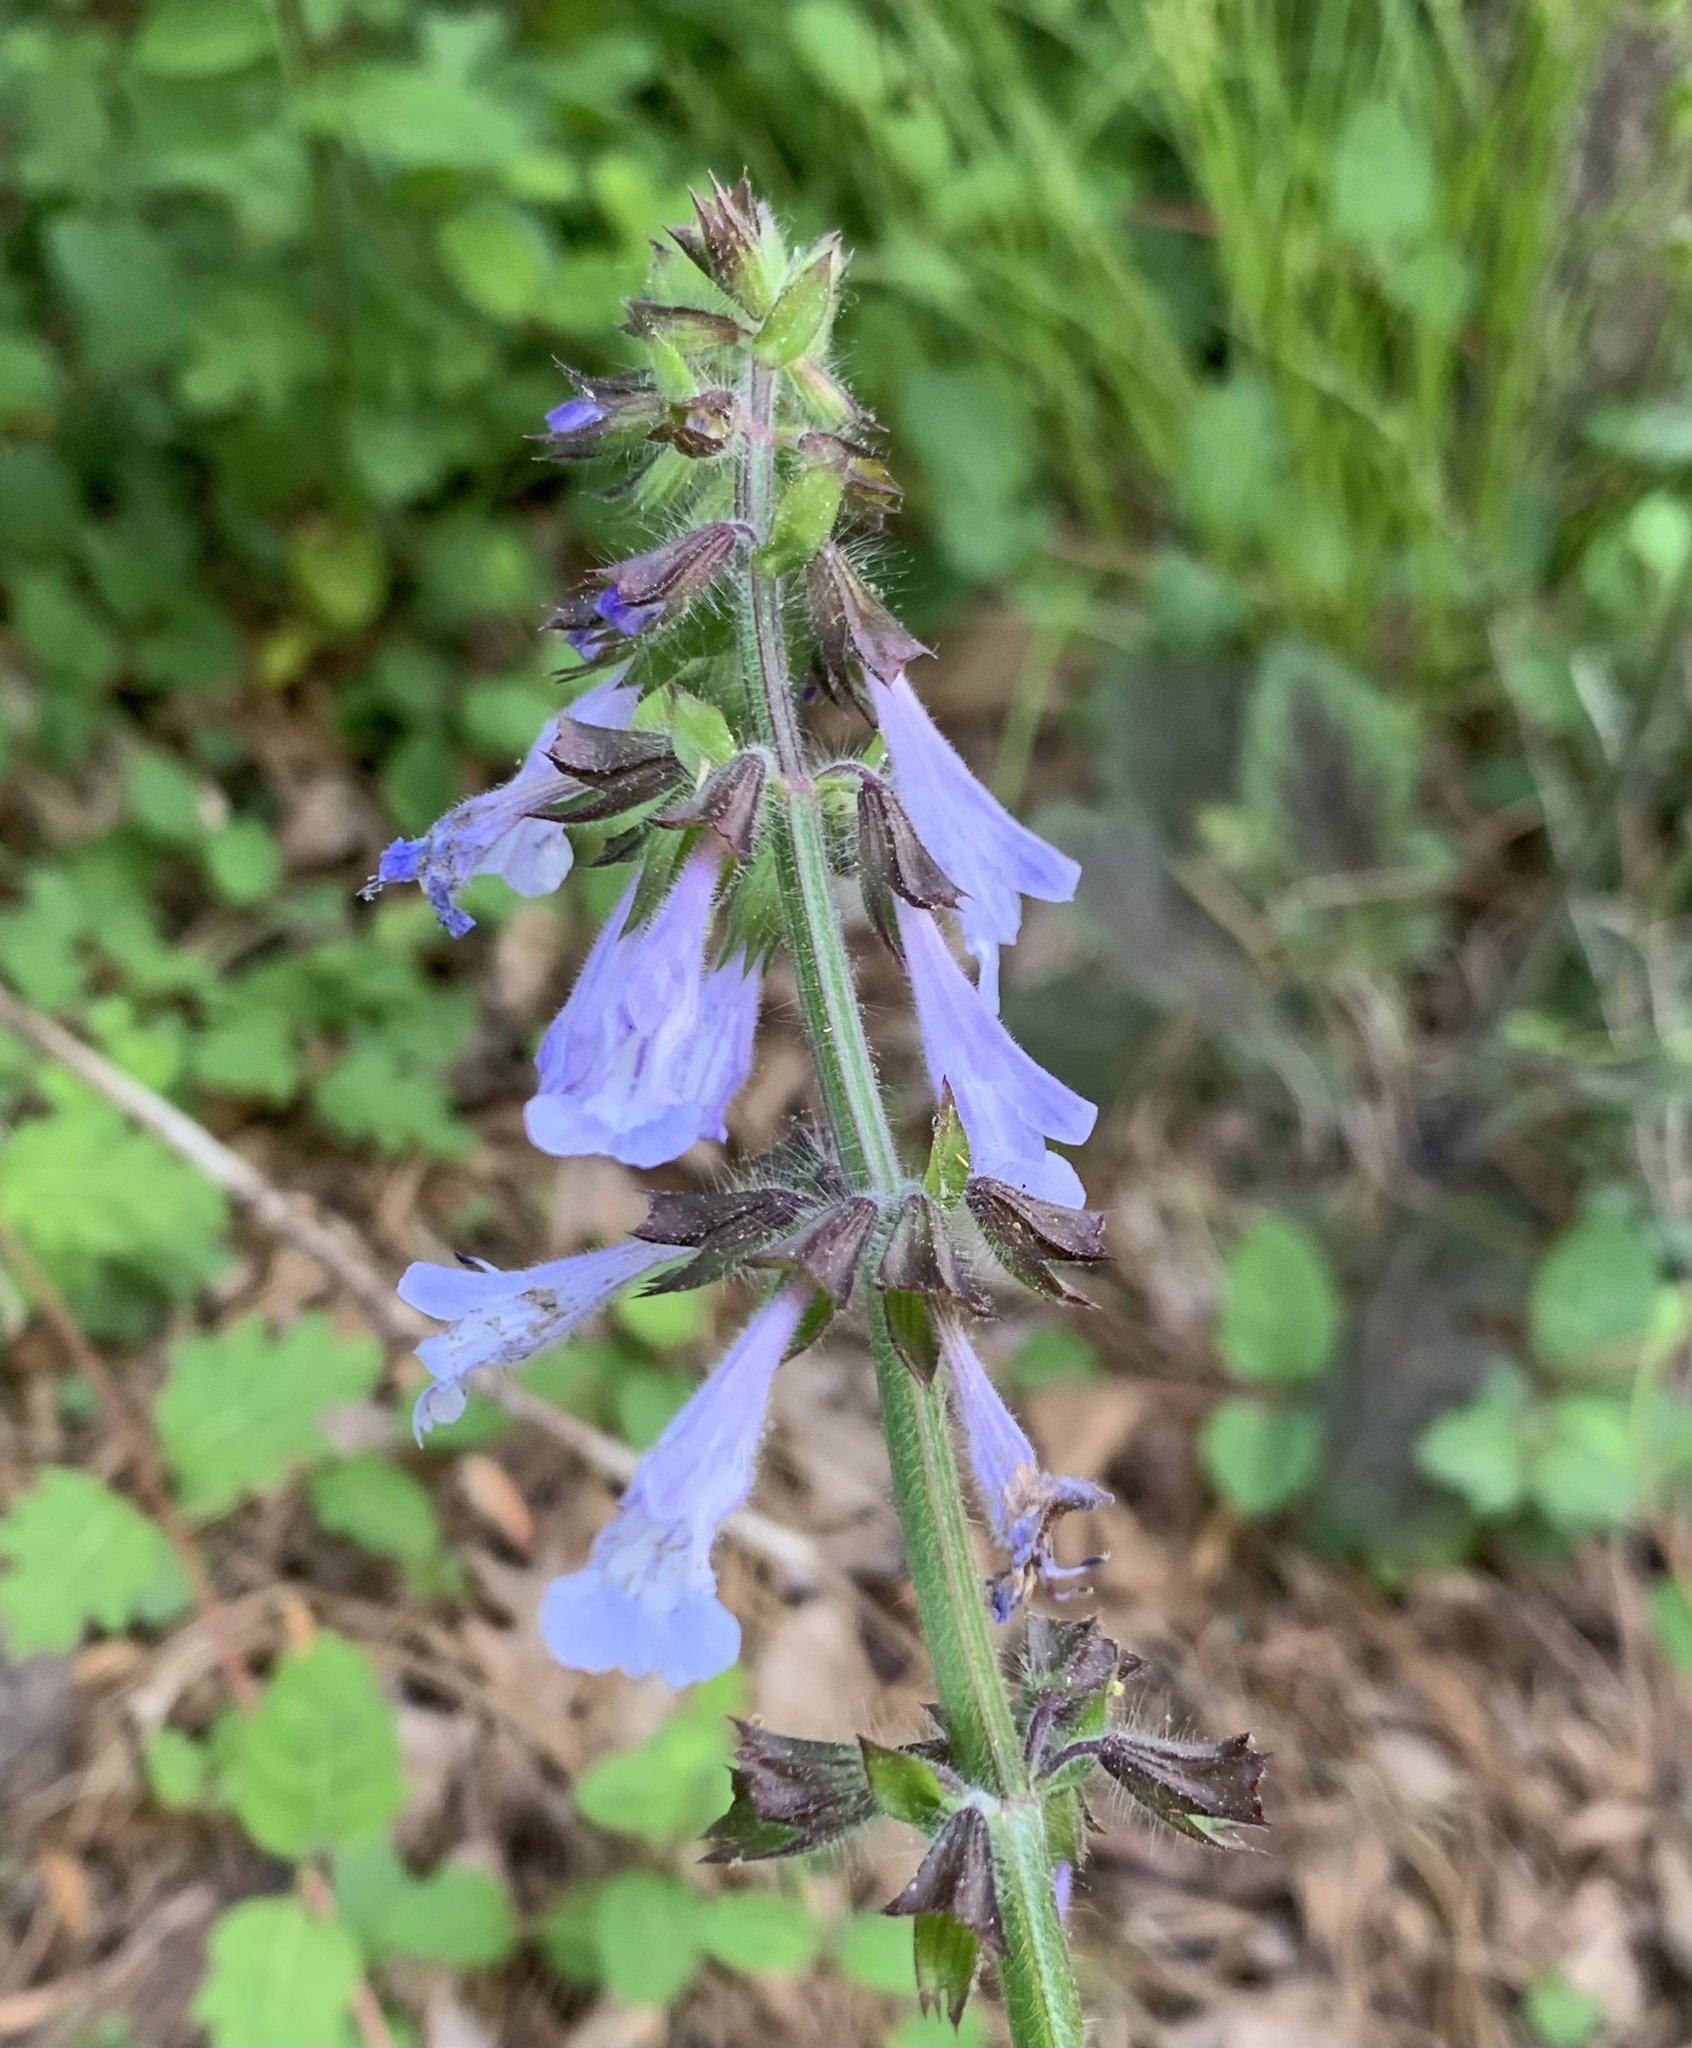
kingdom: Plantae
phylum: Tracheophyta
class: Magnoliopsida
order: Lamiales
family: Lamiaceae
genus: Salvia
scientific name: Salvia lyrata
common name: Cancerweed
